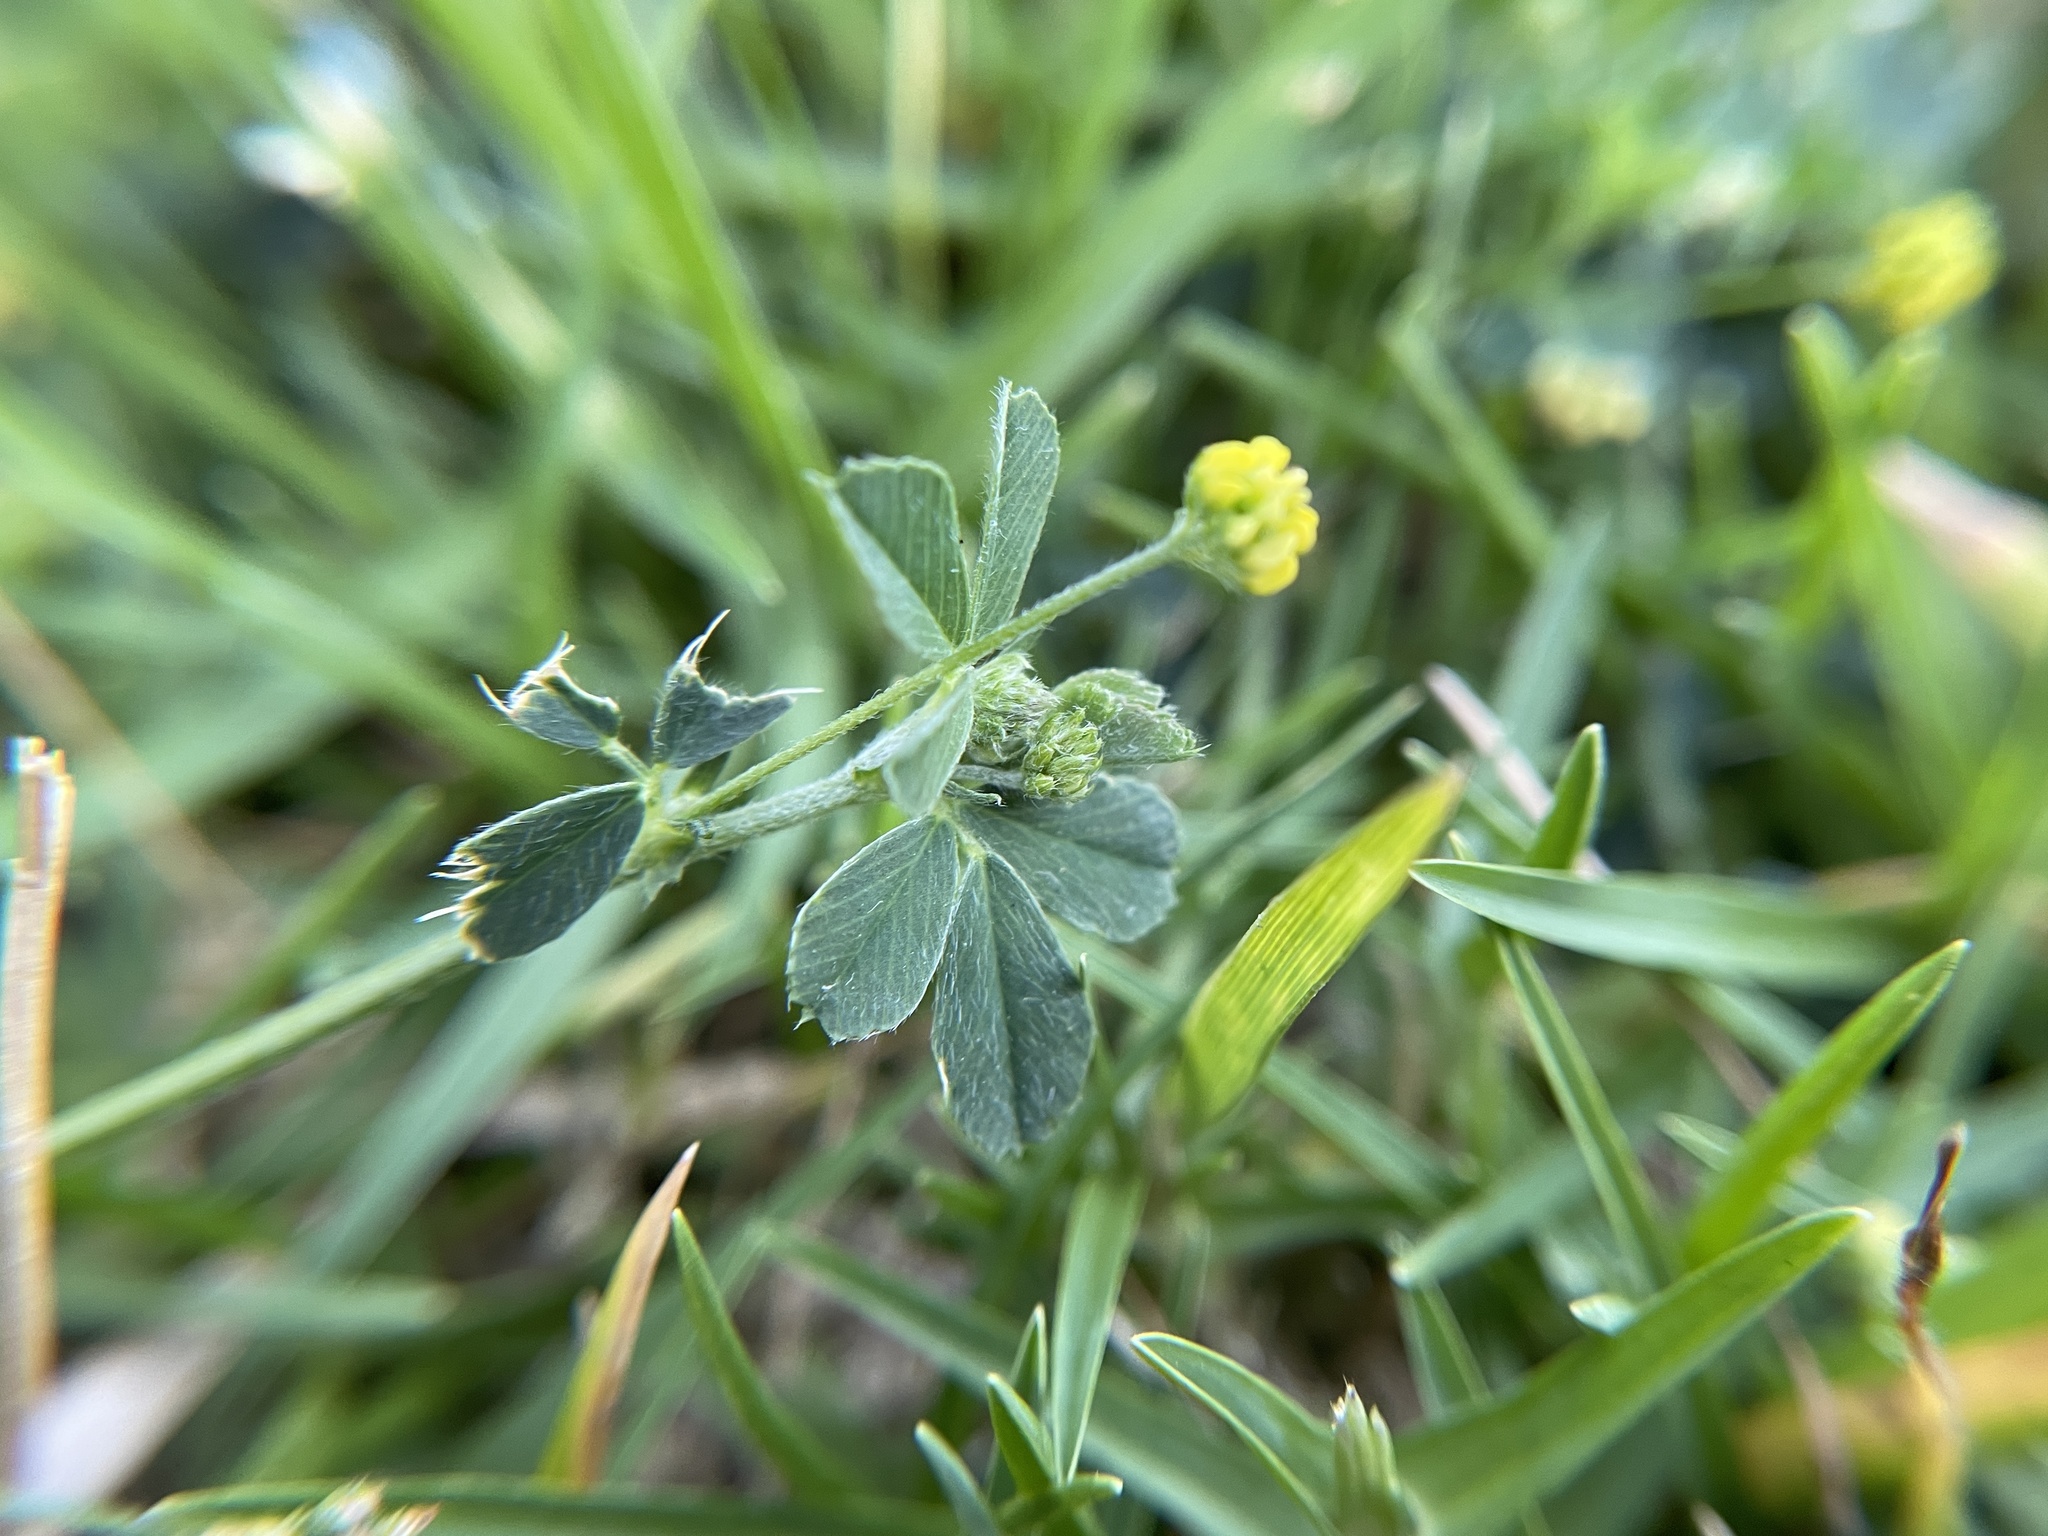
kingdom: Plantae
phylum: Tracheophyta
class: Magnoliopsida
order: Fabales
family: Fabaceae
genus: Medicago
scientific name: Medicago lupulina
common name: Black medick
